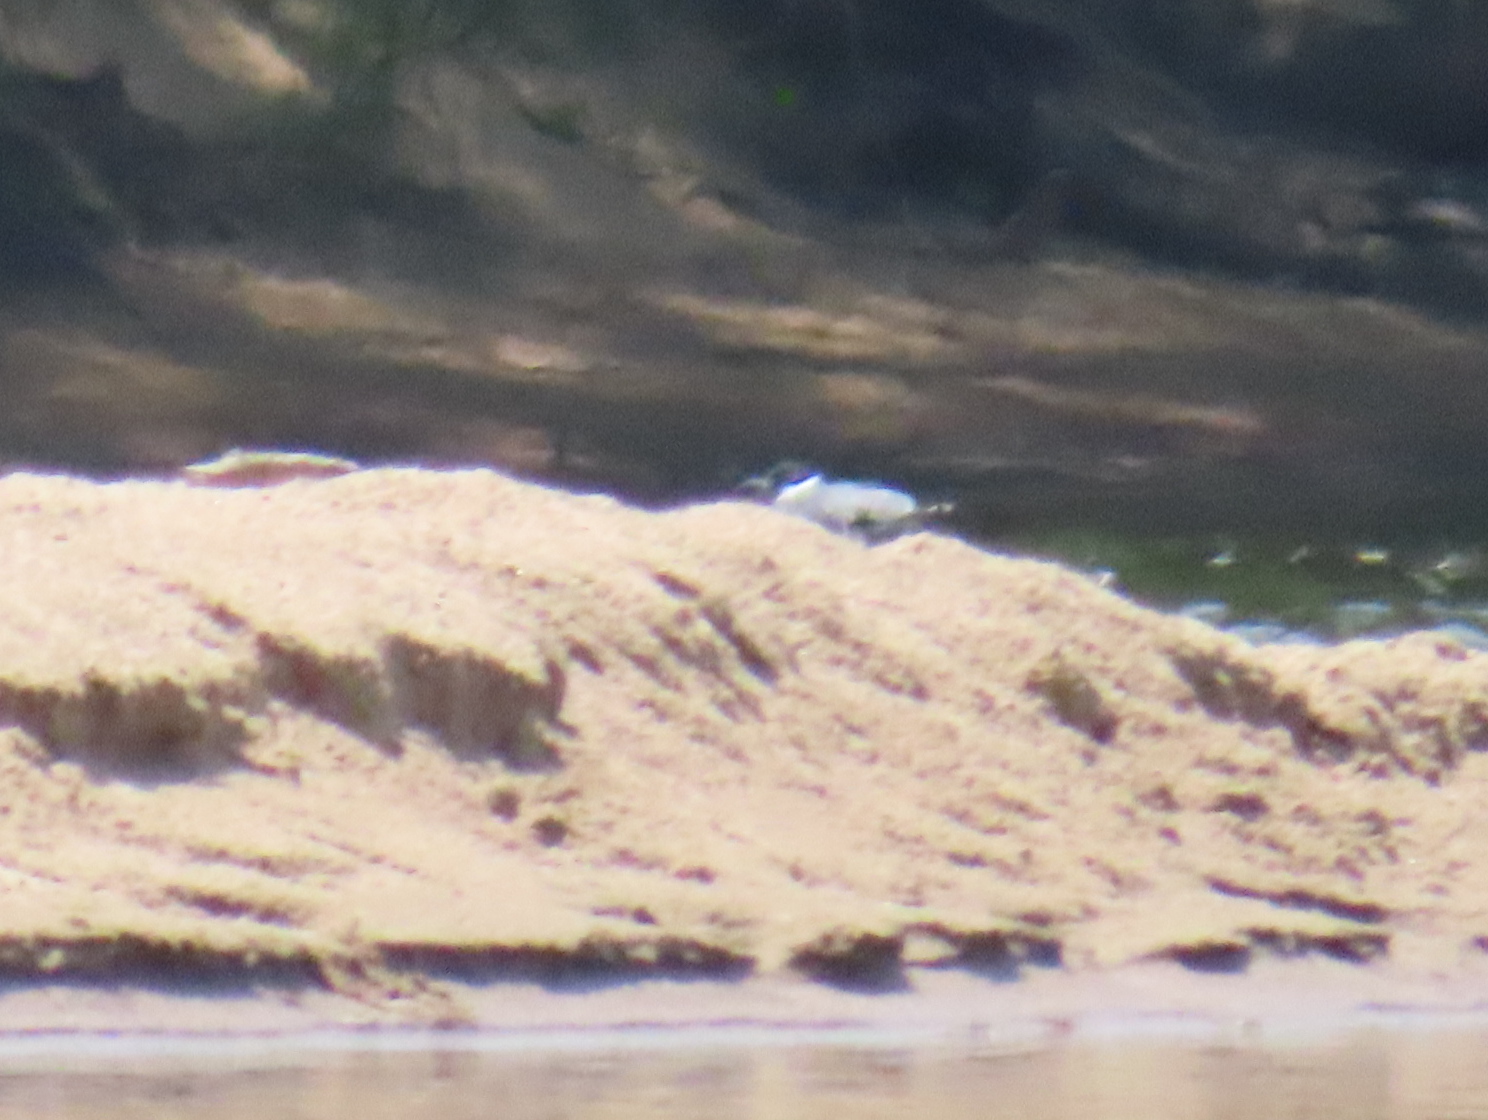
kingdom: Animalia
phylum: Chordata
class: Aves
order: Coraciiformes
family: Alcedinidae
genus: Megaceryle
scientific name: Megaceryle alcyon
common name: Belted kingfisher
